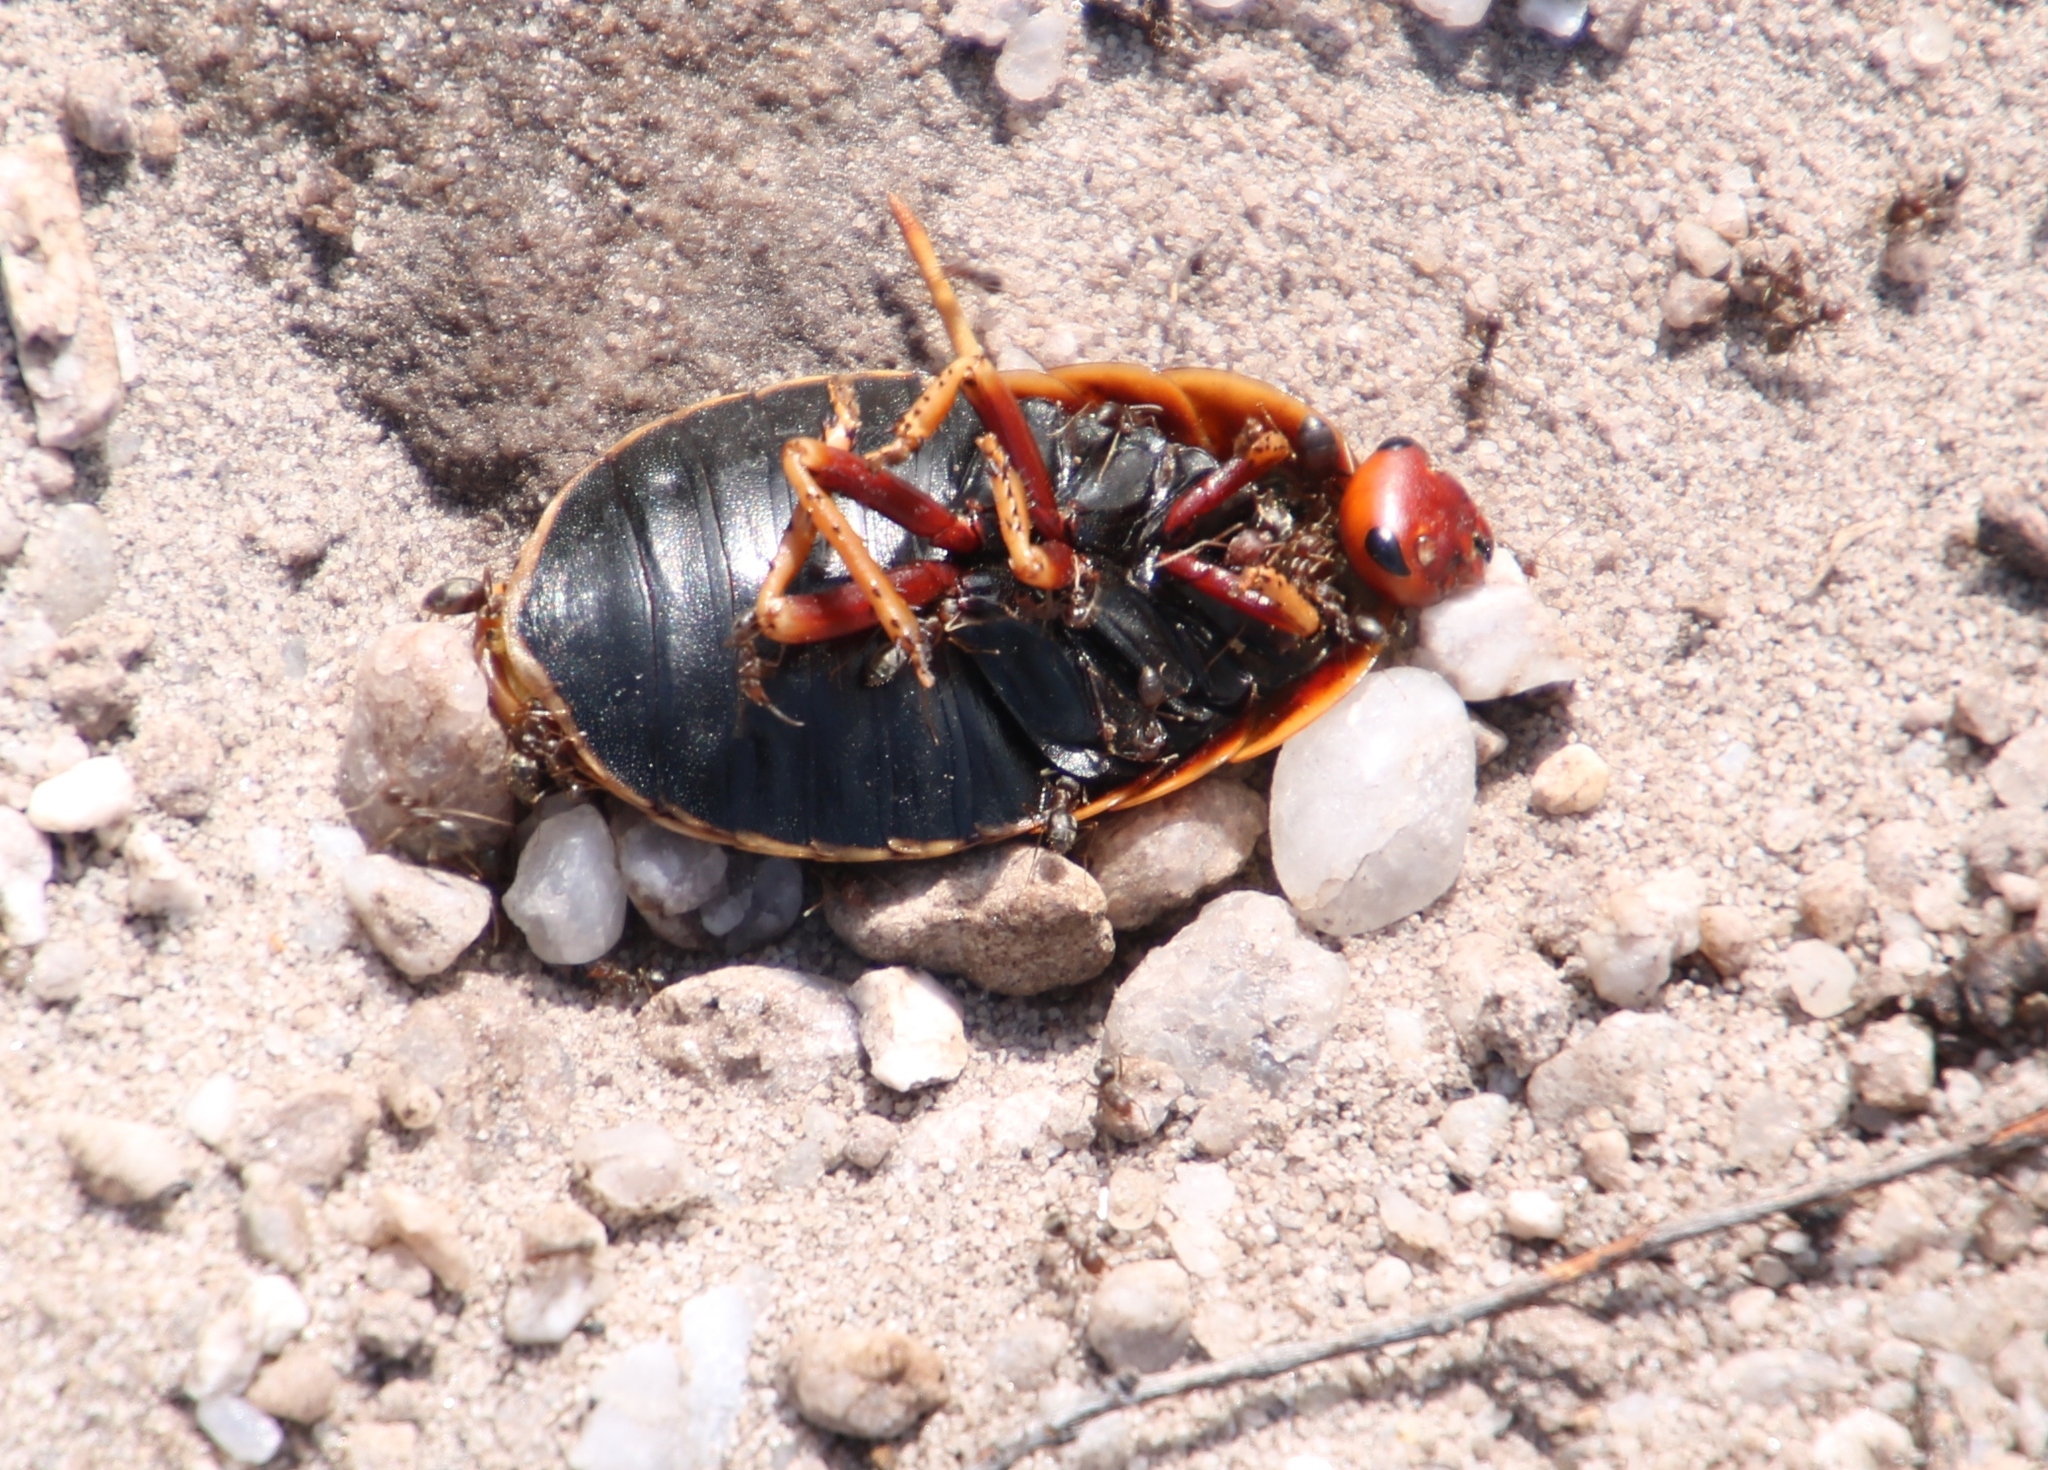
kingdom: Animalia
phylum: Arthropoda
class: Insecta
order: Hymenoptera
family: Formicidae
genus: Anoplolepis
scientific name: Anoplolepis steingroeveri
